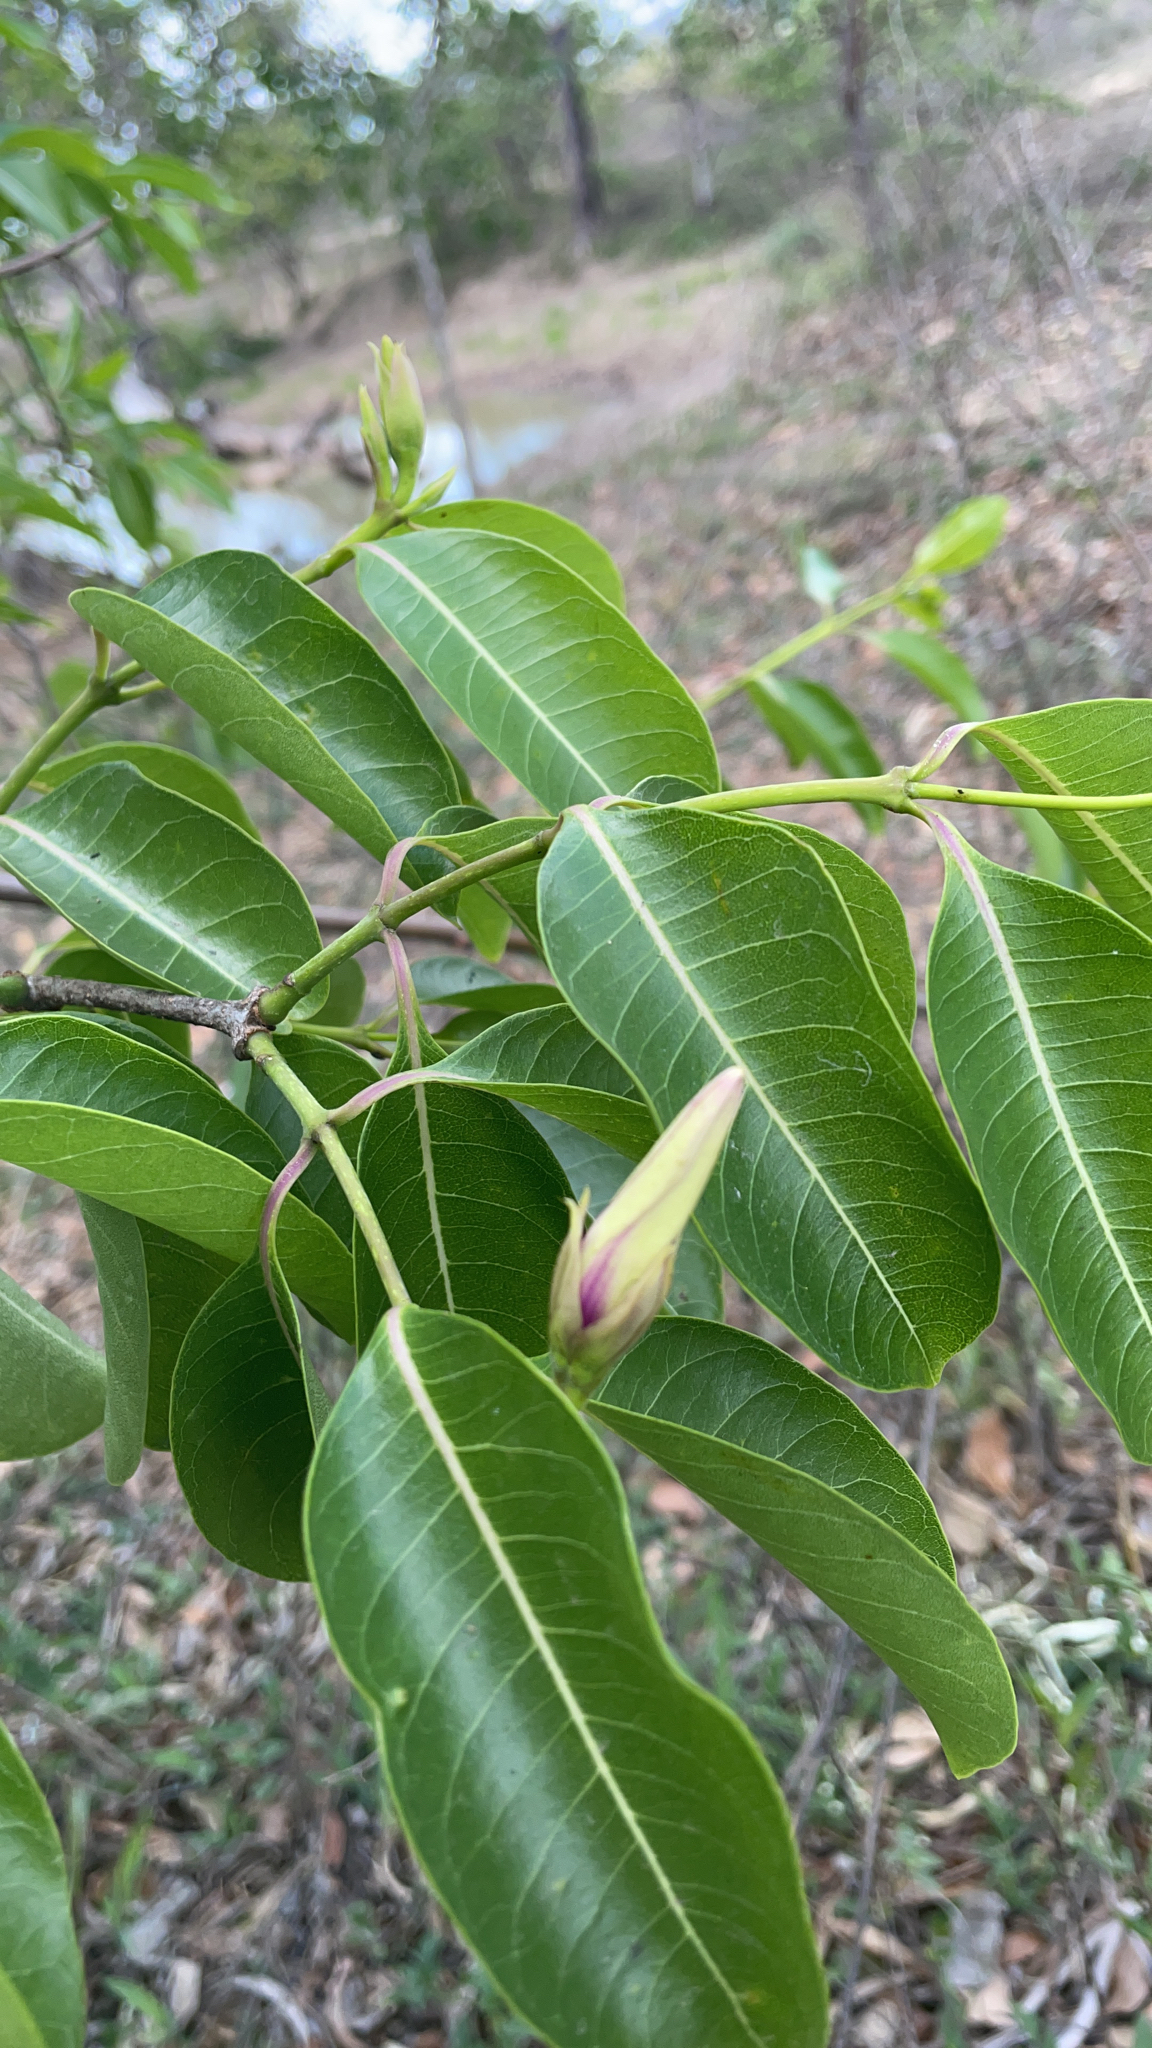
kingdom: Plantae
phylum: Tracheophyta
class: Magnoliopsida
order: Gentianales
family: Apocynaceae
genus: Cryptostegia
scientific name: Cryptostegia grandiflora
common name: Palay rubbervine
